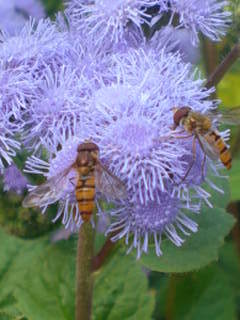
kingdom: Animalia
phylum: Arthropoda
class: Insecta
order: Diptera
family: Syrphidae
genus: Episyrphus
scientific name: Episyrphus balteatus
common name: Marmalade hoverfly
